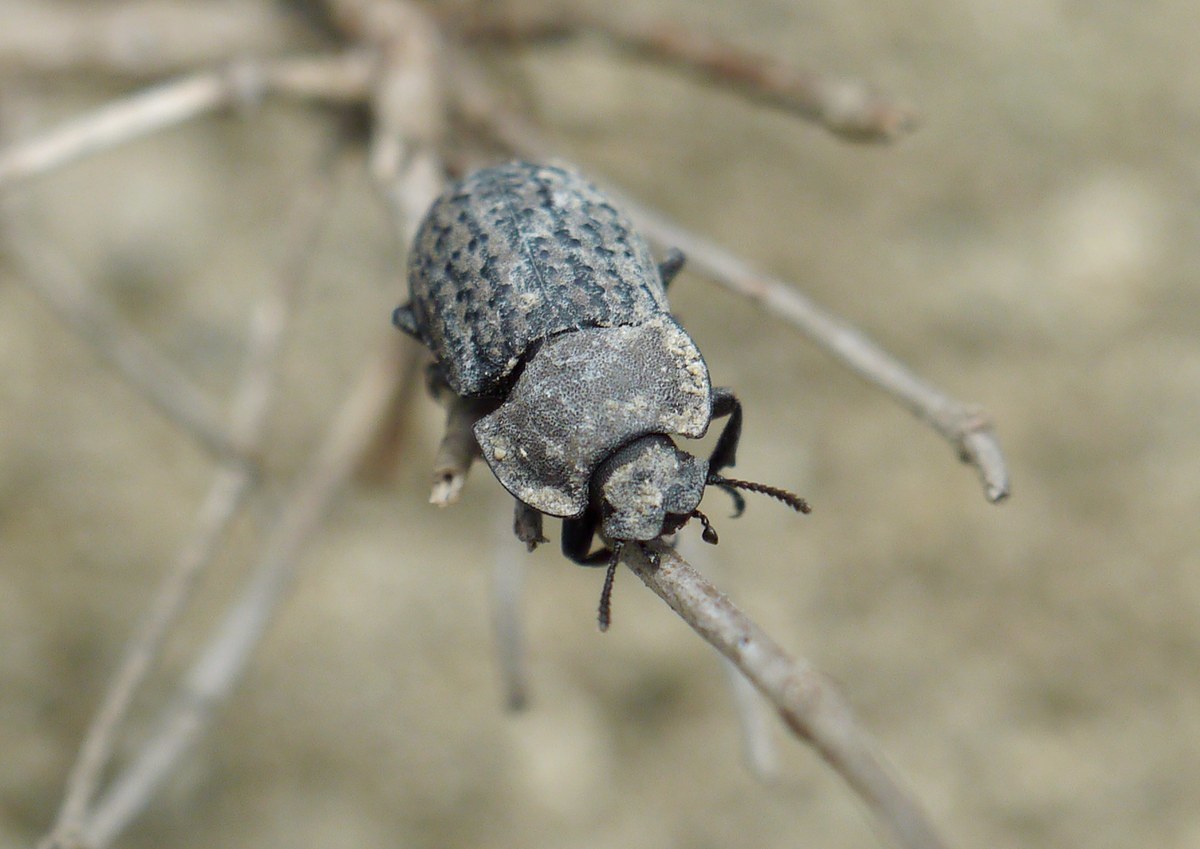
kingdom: Animalia
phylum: Arthropoda
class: Insecta
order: Coleoptera
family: Tenebrionidae
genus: Opatrum
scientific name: Opatrum sabulosum
